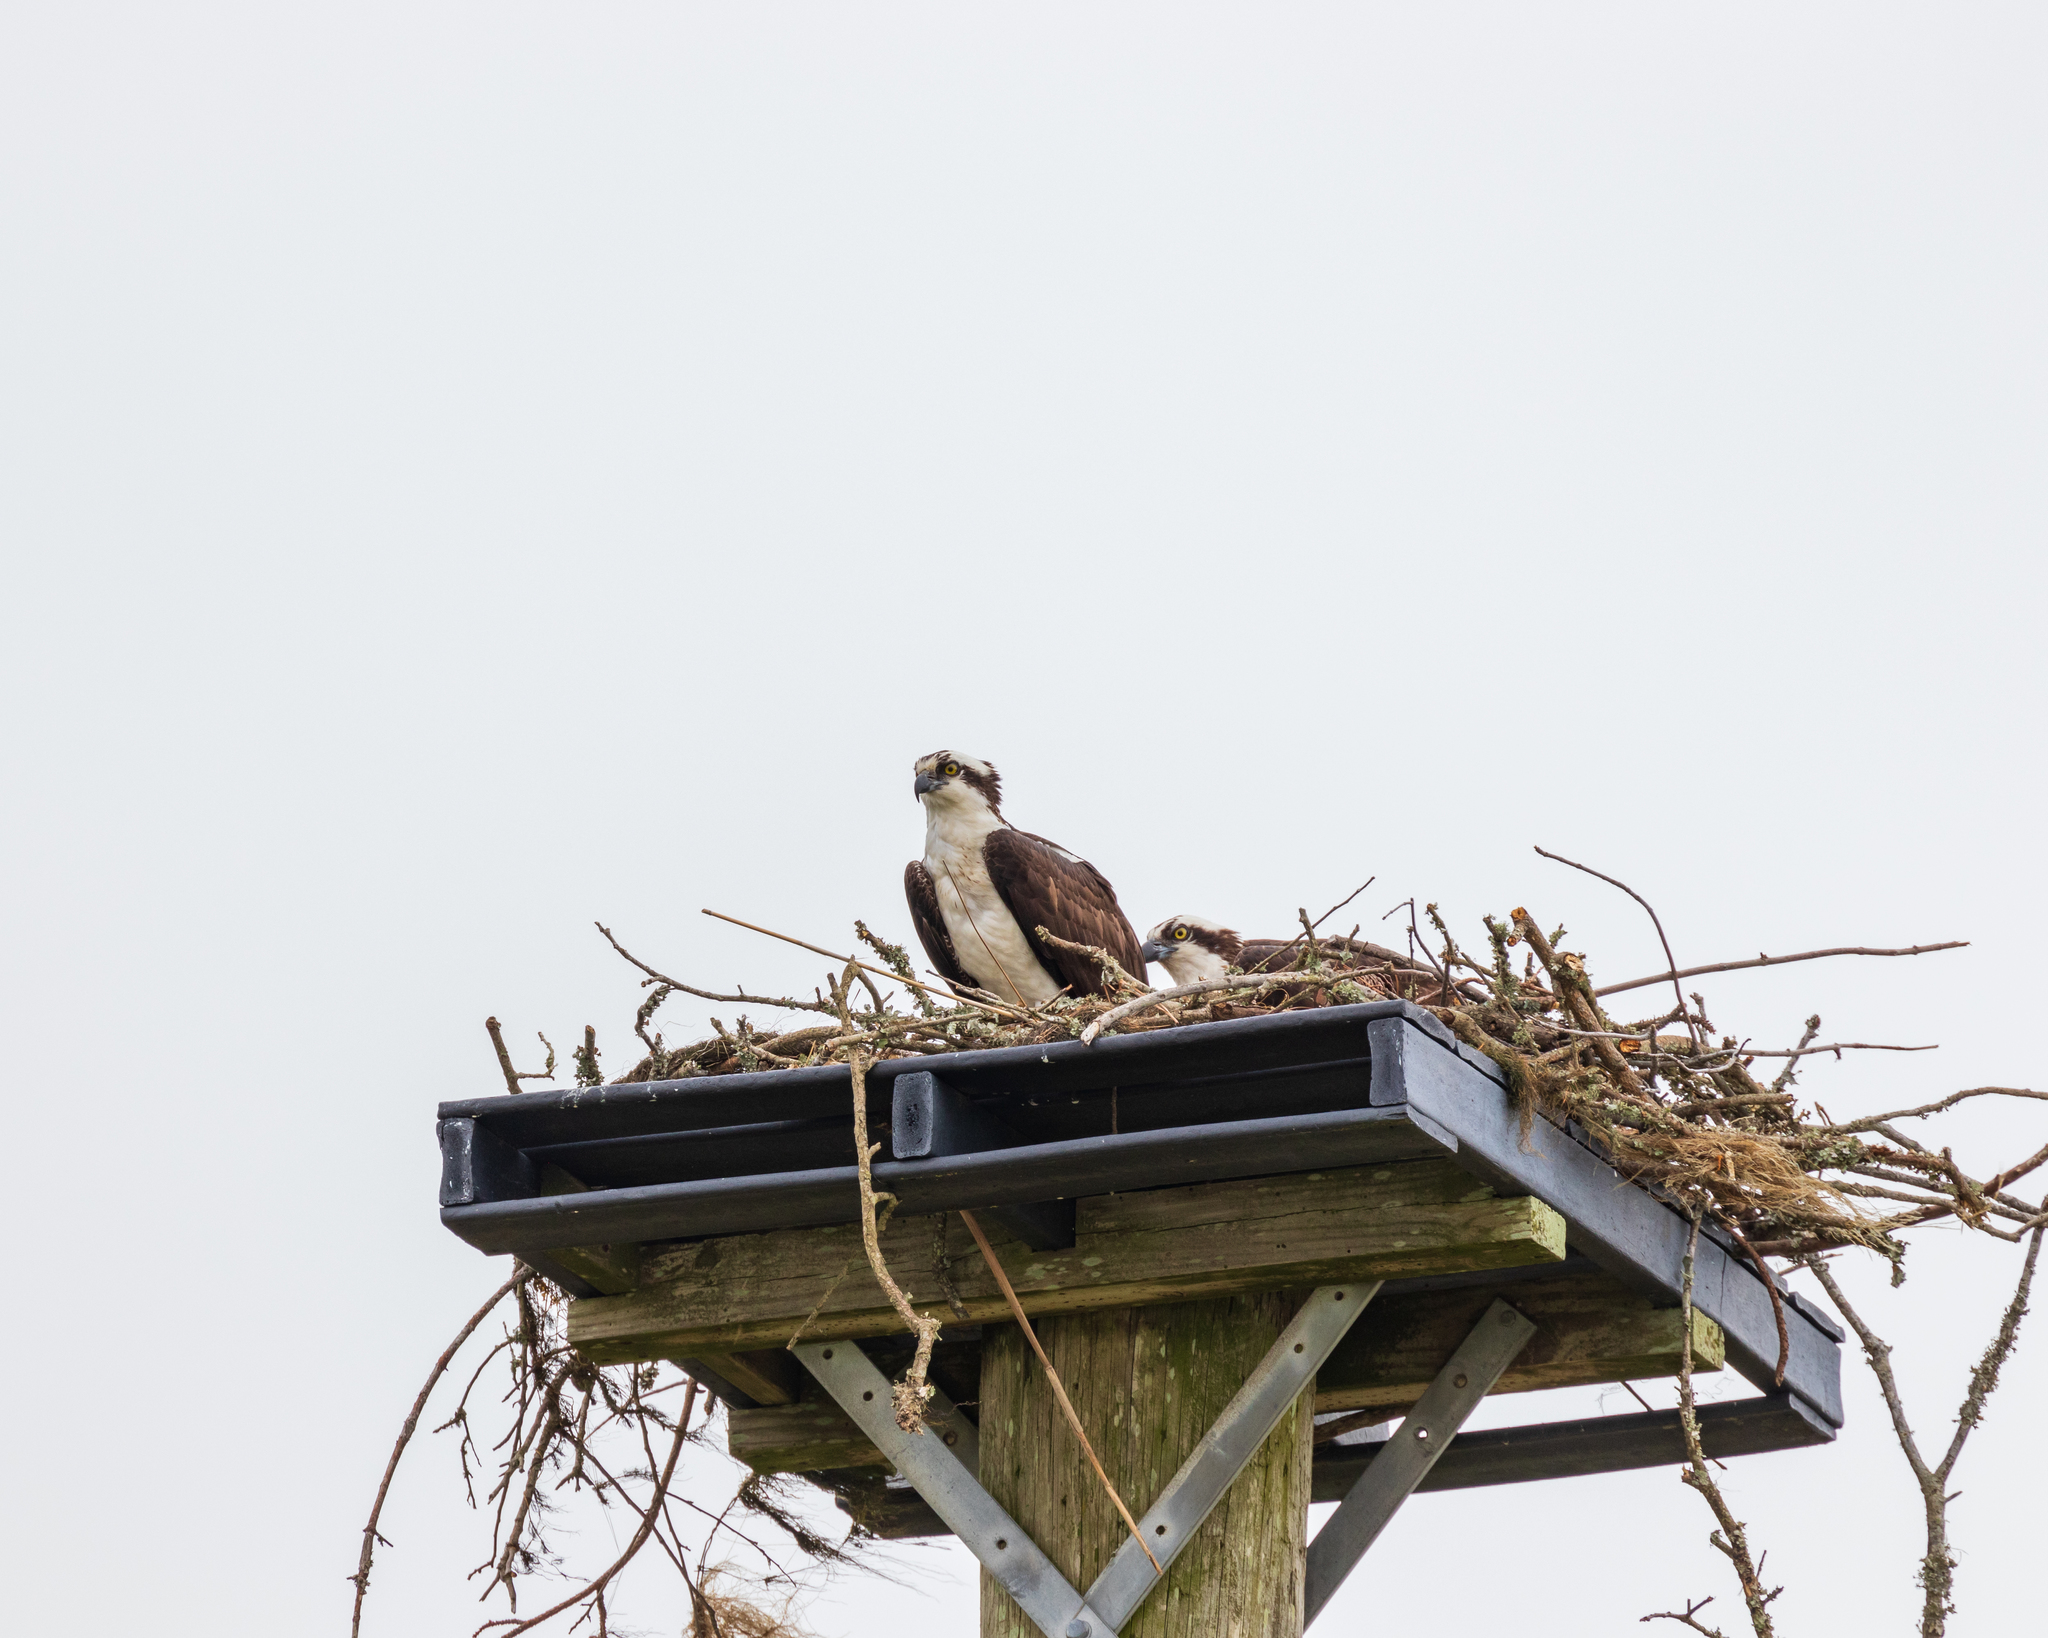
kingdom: Animalia
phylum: Chordata
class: Aves
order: Accipitriformes
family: Pandionidae
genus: Pandion
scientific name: Pandion haliaetus
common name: Osprey
